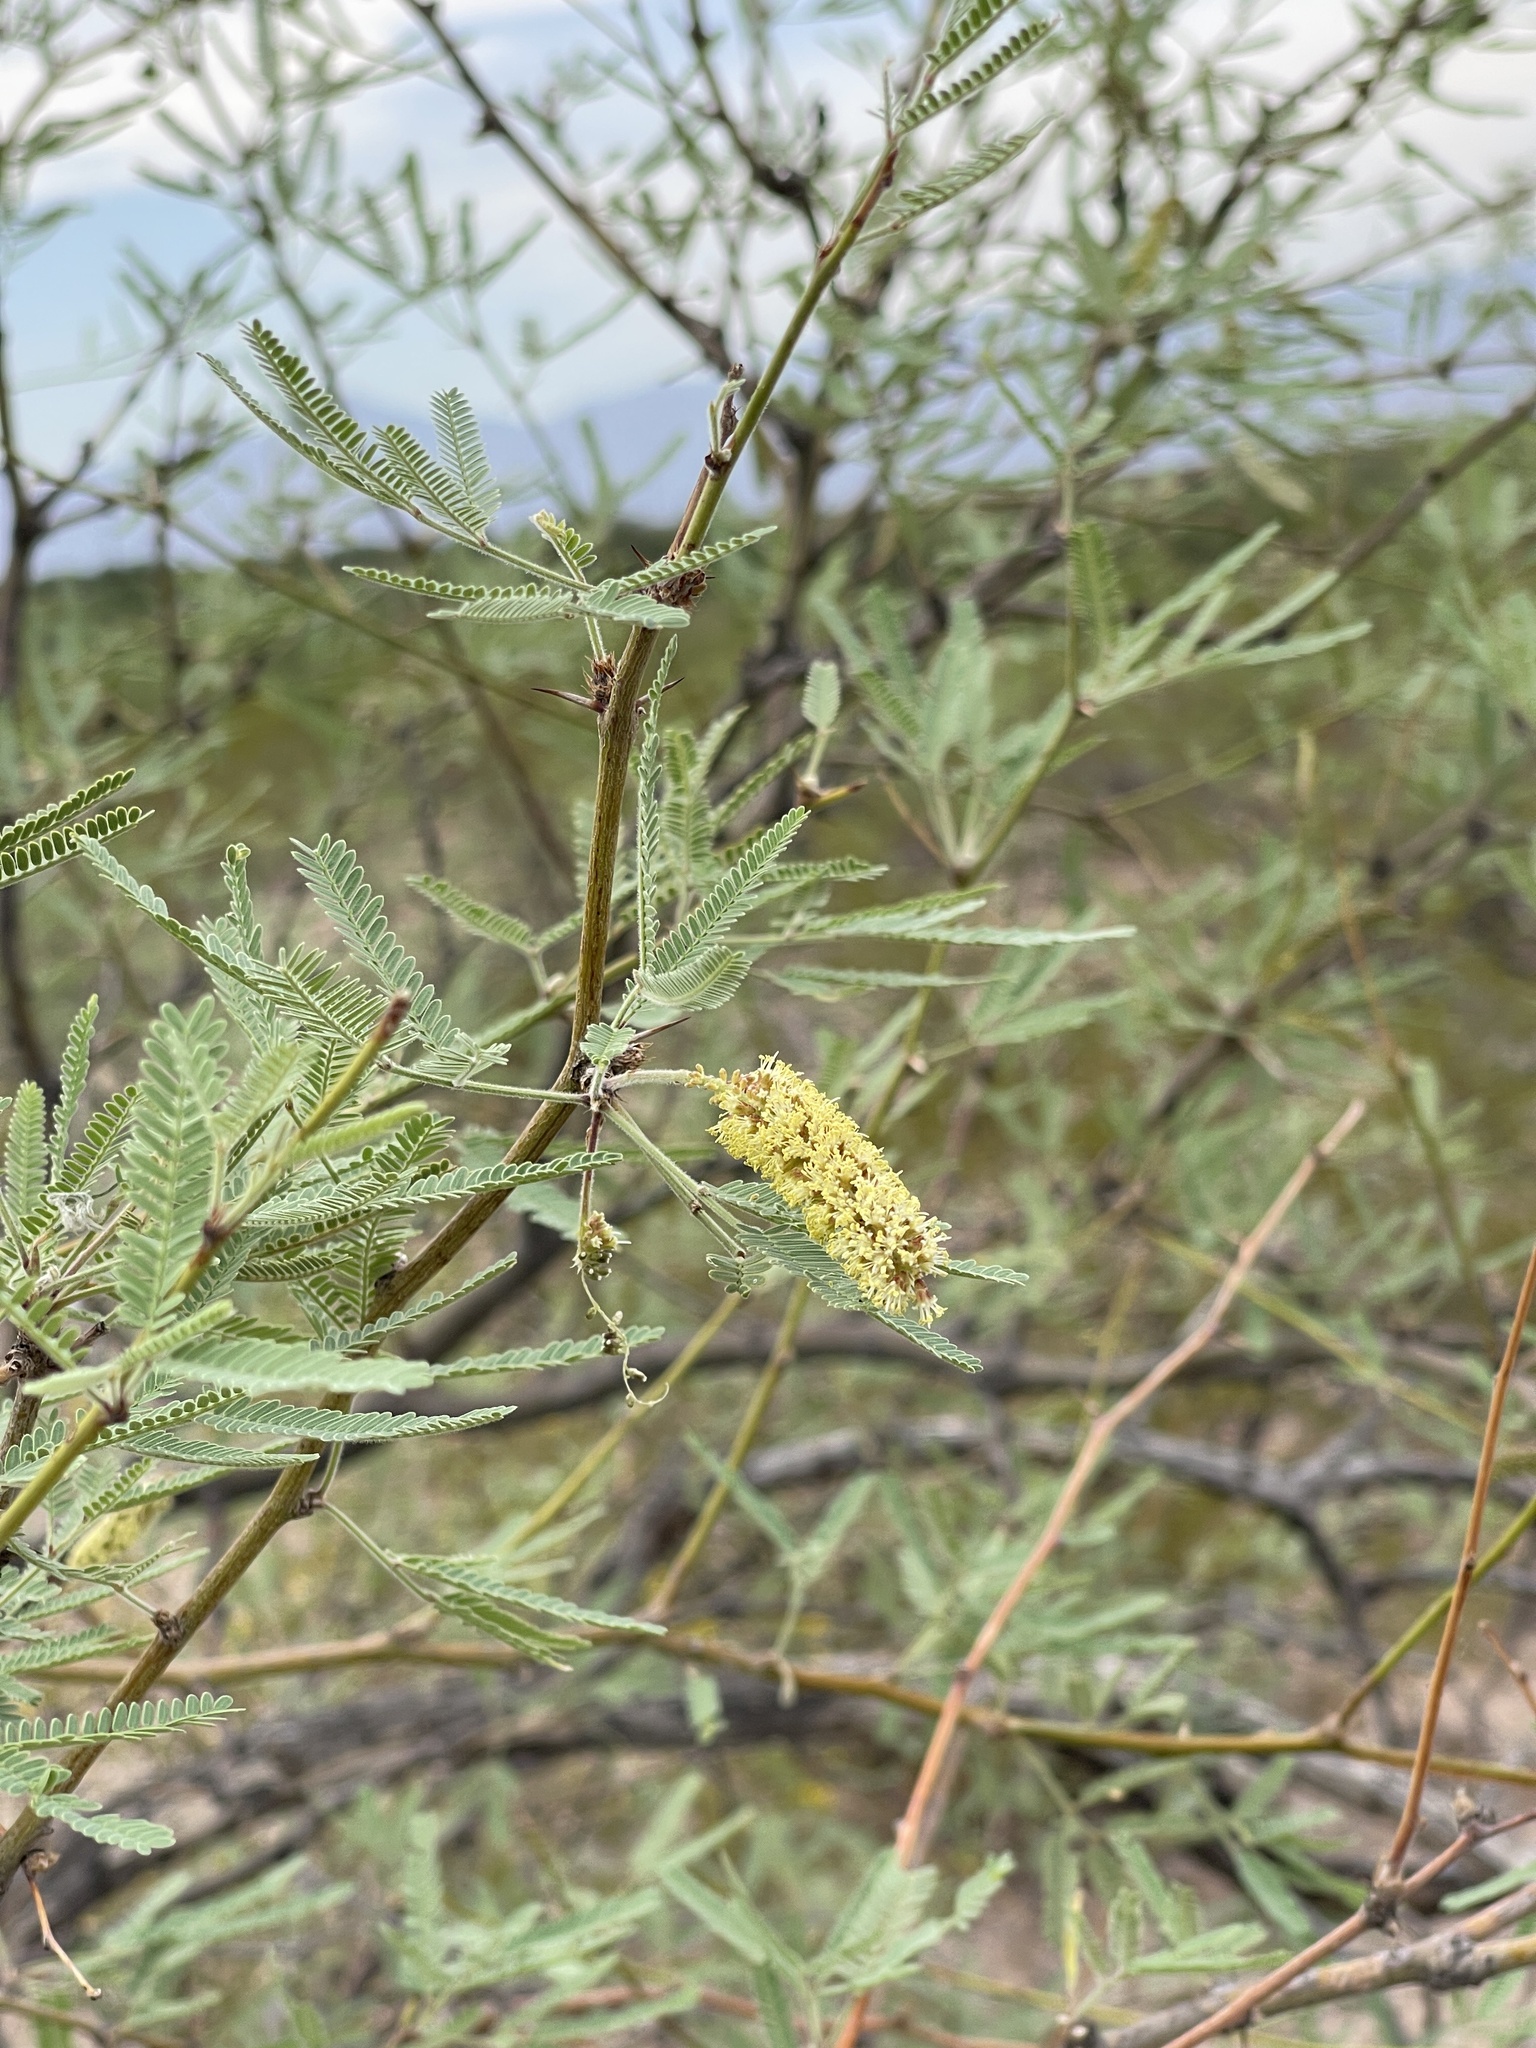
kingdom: Plantae
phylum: Tracheophyta
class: Magnoliopsida
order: Fabales
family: Fabaceae
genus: Prosopis
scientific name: Prosopis velutina
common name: Velvet mesquite
